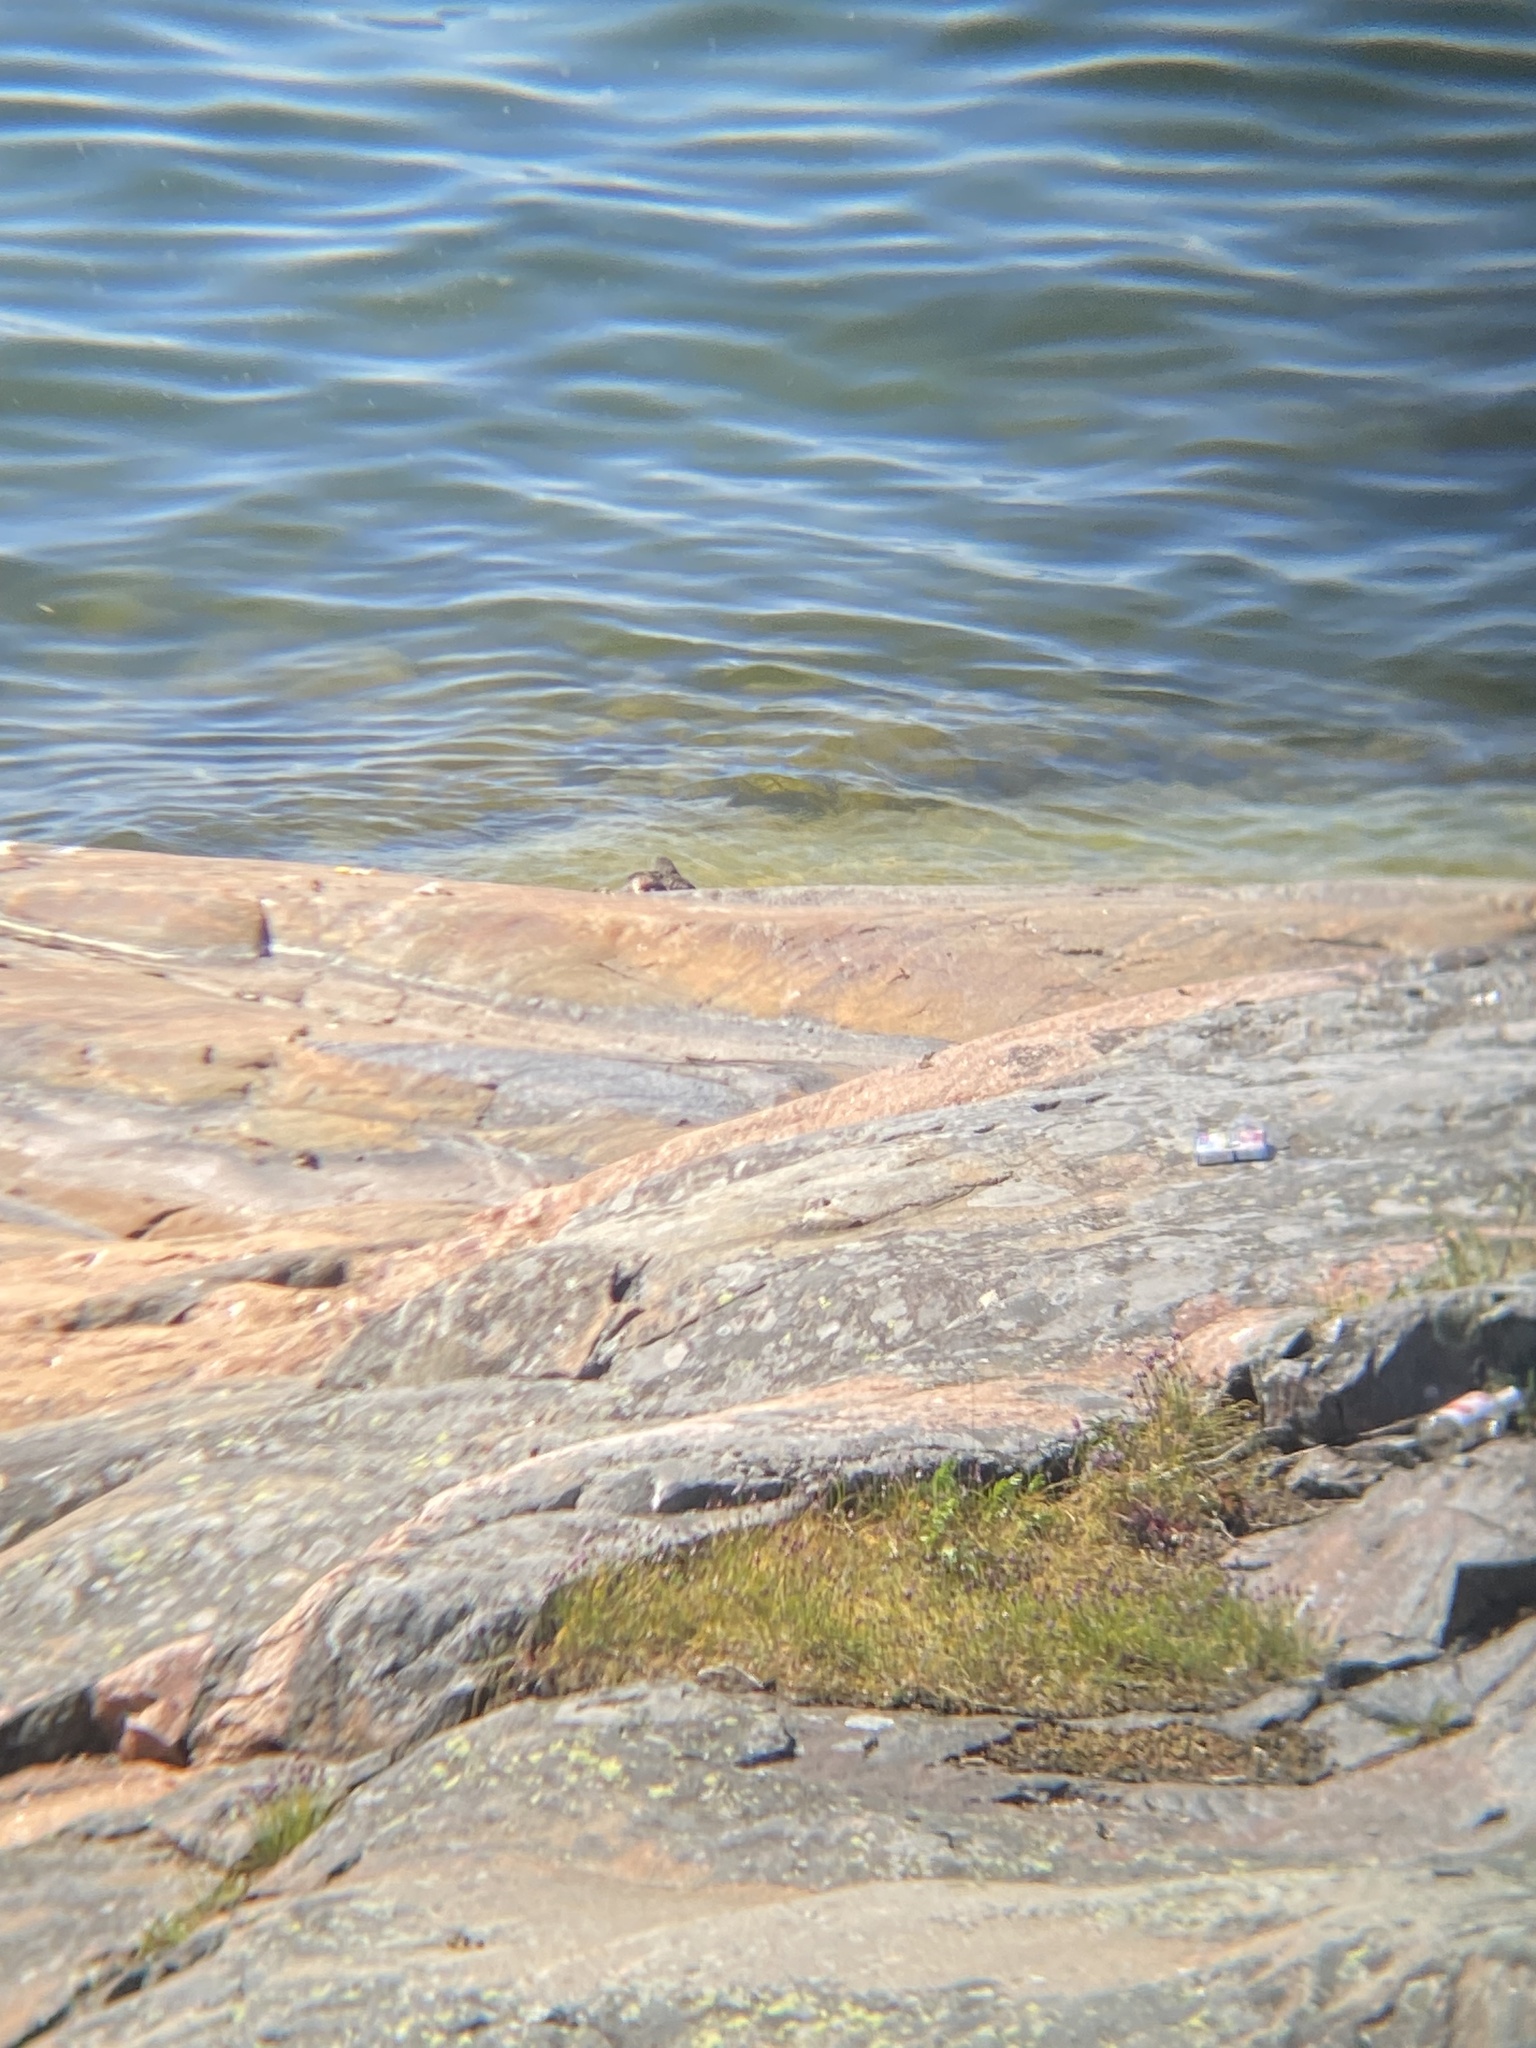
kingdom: Animalia
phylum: Chordata
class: Aves
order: Anseriformes
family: Anatidae
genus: Somateria
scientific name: Somateria mollissima
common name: Common eider
